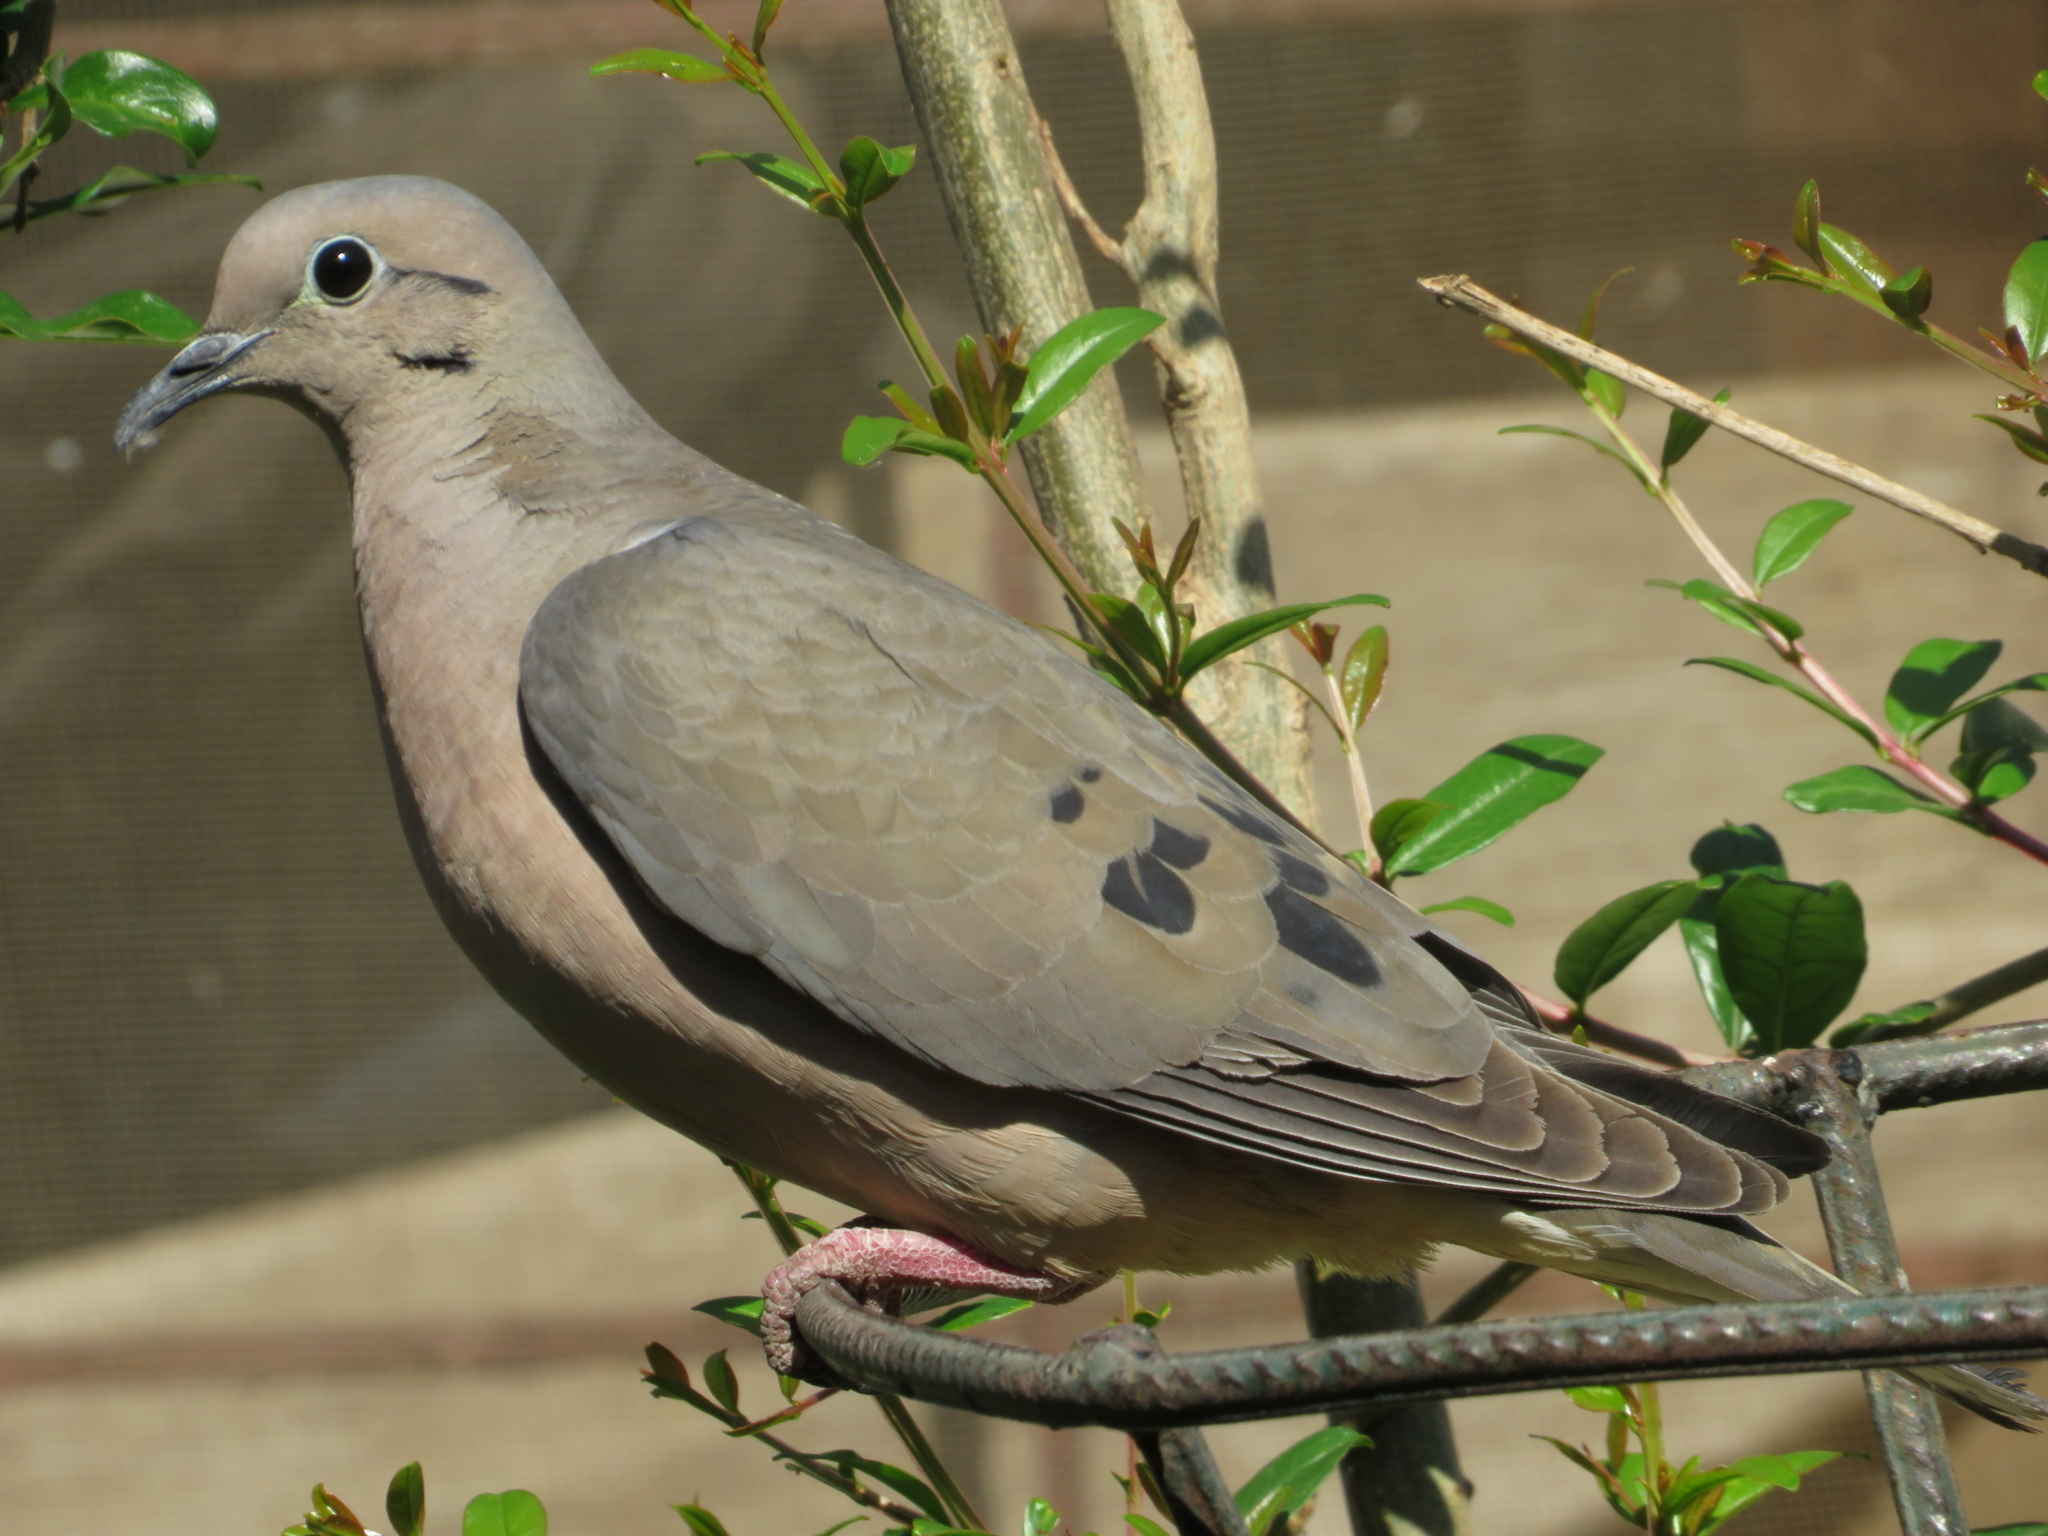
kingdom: Animalia
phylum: Chordata
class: Aves
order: Columbiformes
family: Columbidae
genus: Zenaida
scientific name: Zenaida auriculata
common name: Eared dove
